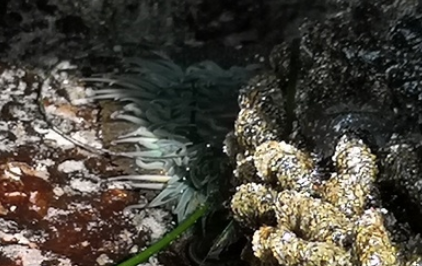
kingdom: Animalia
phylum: Cnidaria
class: Anthozoa
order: Actiniaria
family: Actiniidae
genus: Anthopleura
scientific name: Anthopleura sola
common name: Sun anemone
